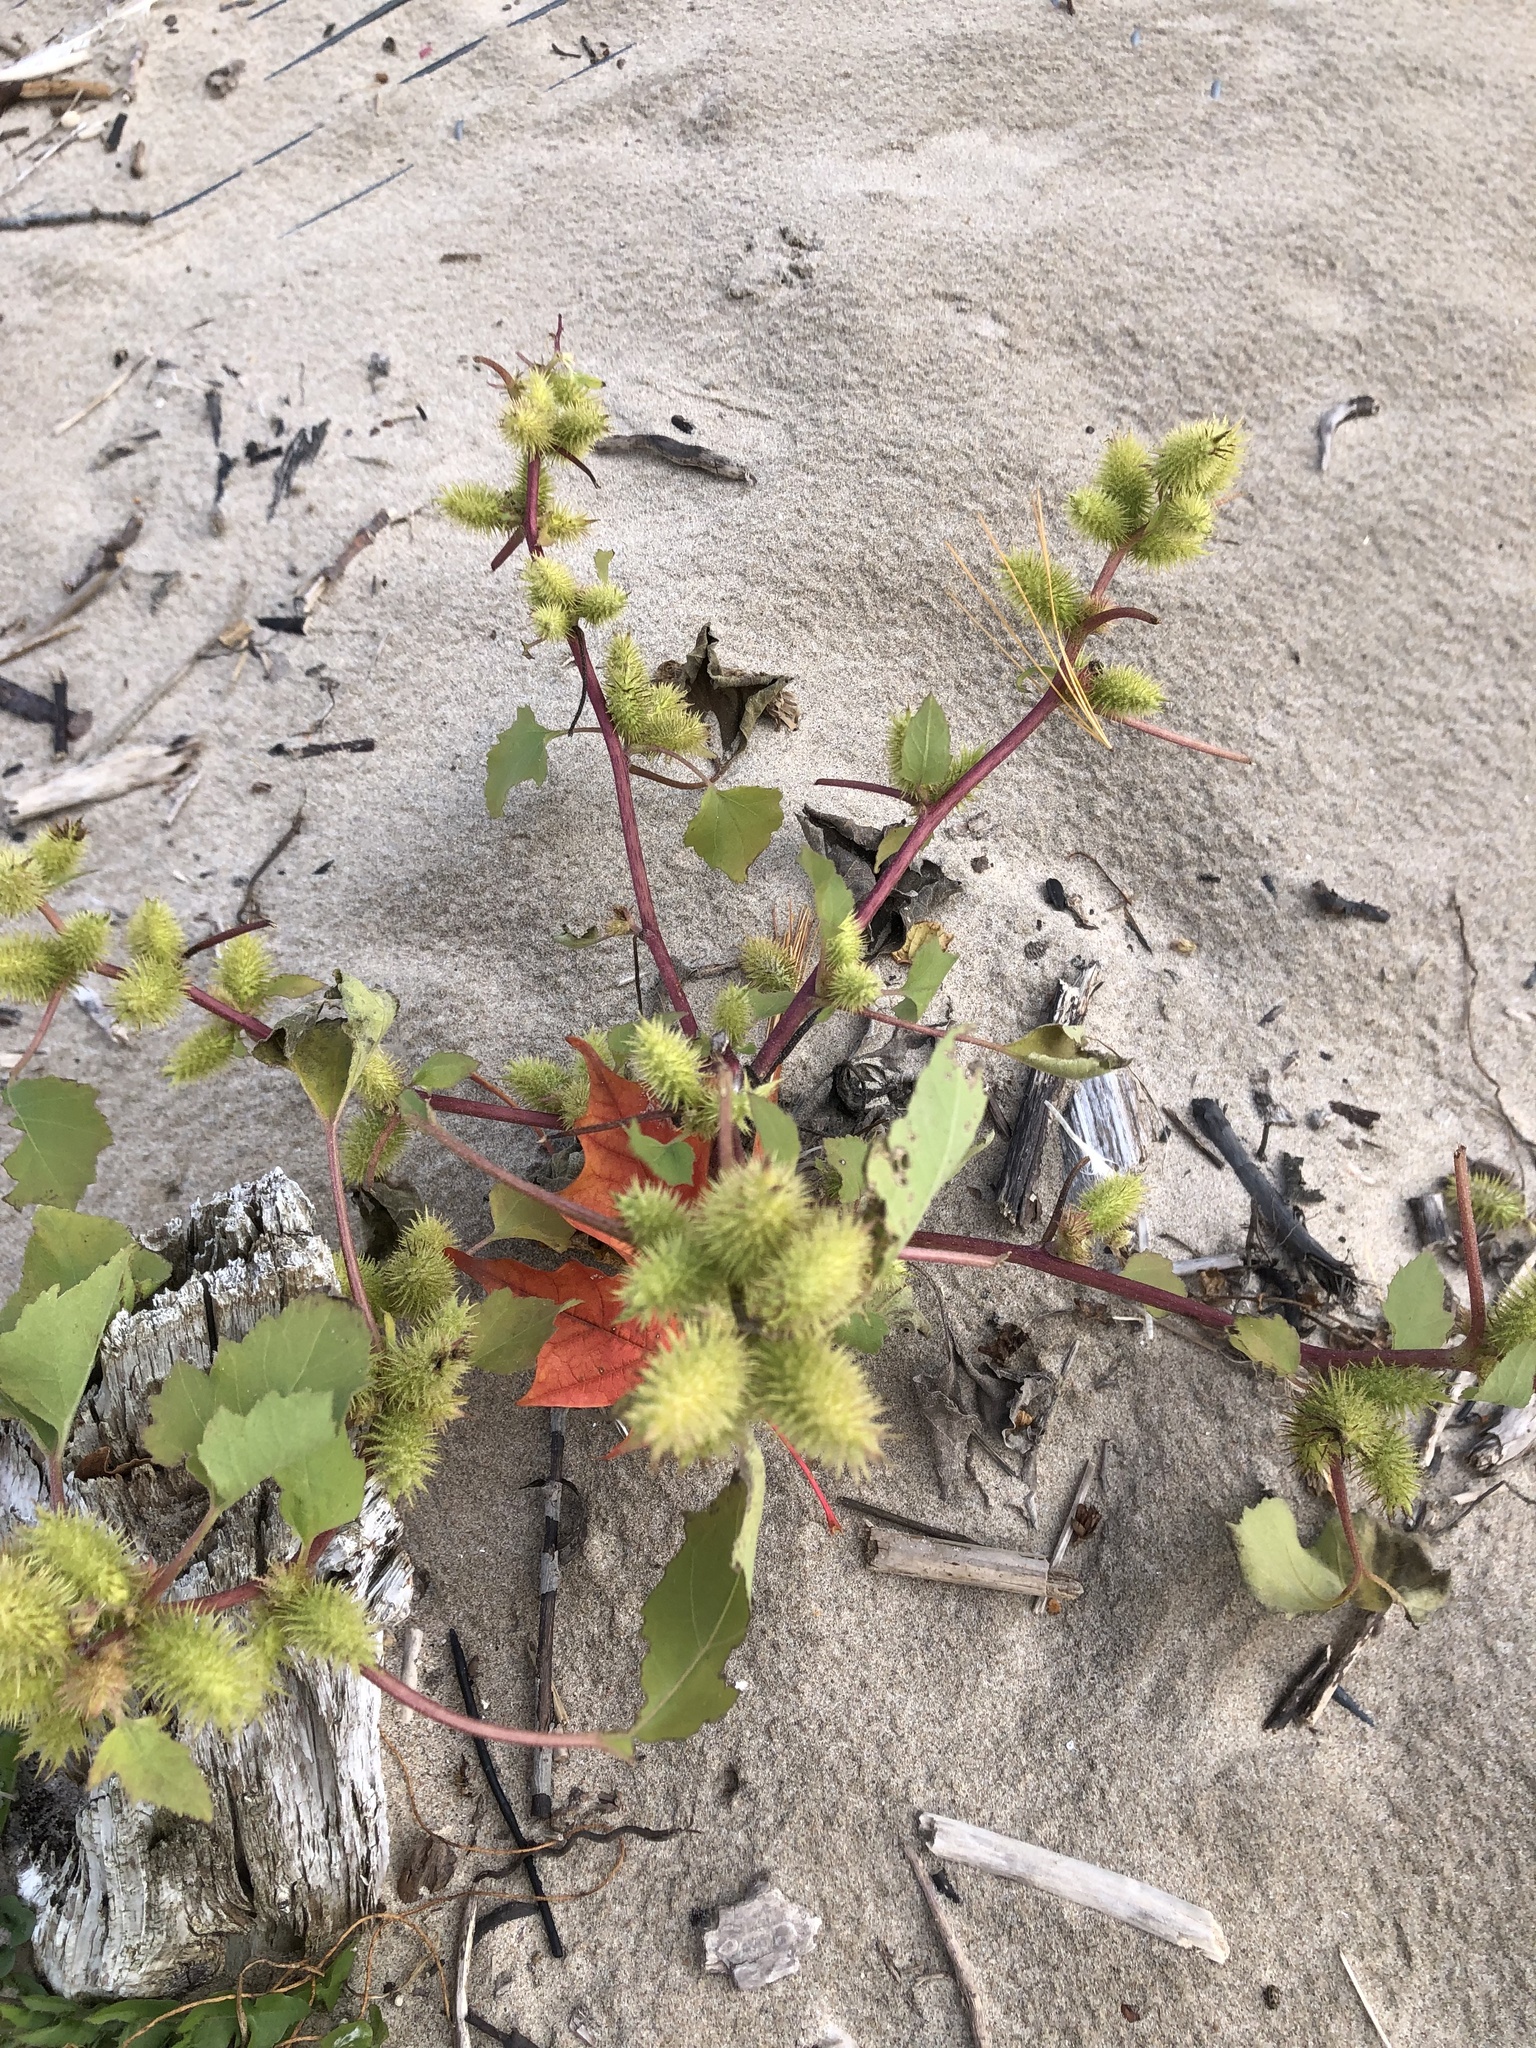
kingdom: Plantae
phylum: Tracheophyta
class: Magnoliopsida
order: Asterales
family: Asteraceae
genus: Xanthium
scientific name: Xanthium strumarium
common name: Rough cocklebur
